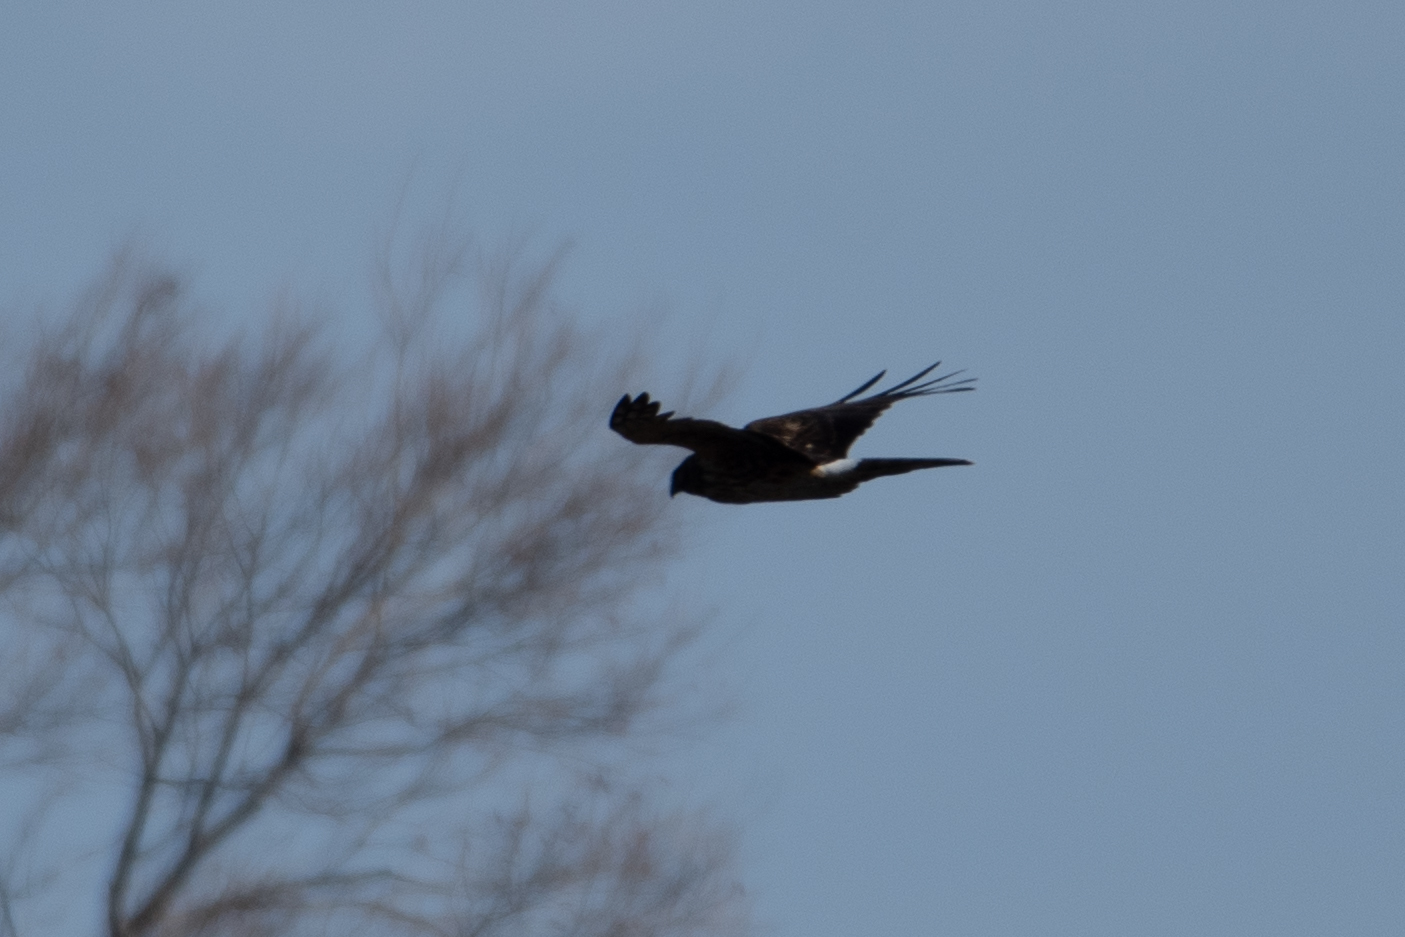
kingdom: Animalia
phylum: Chordata
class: Aves
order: Accipitriformes
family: Accipitridae
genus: Circus
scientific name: Circus cyaneus
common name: Hen harrier
